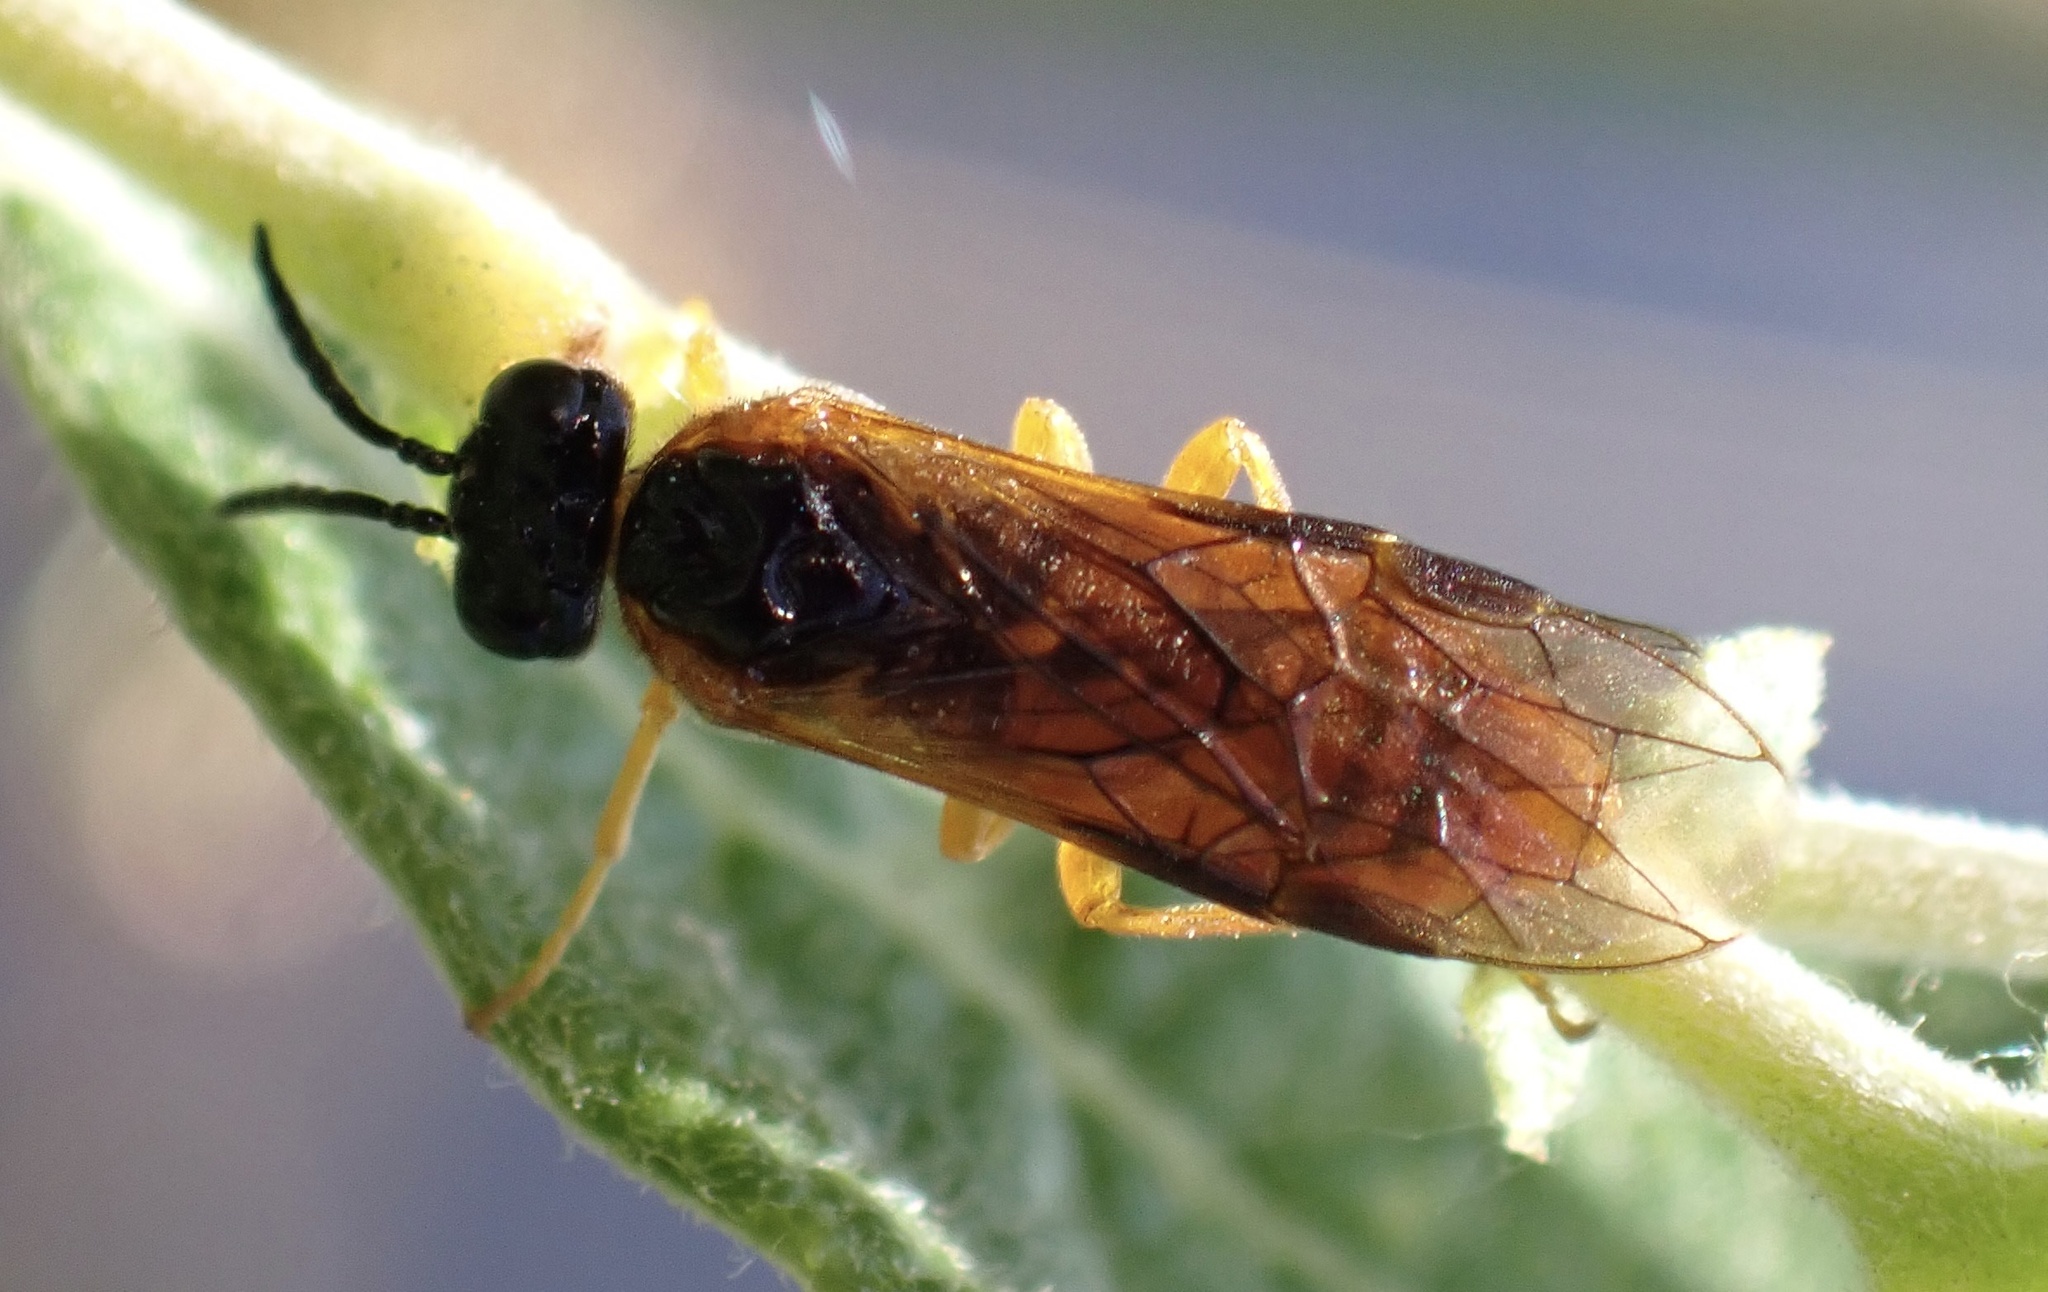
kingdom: Animalia
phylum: Arthropoda
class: Insecta
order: Hymenoptera
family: Tenthredinidae
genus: Selandria
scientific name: Selandria serva
